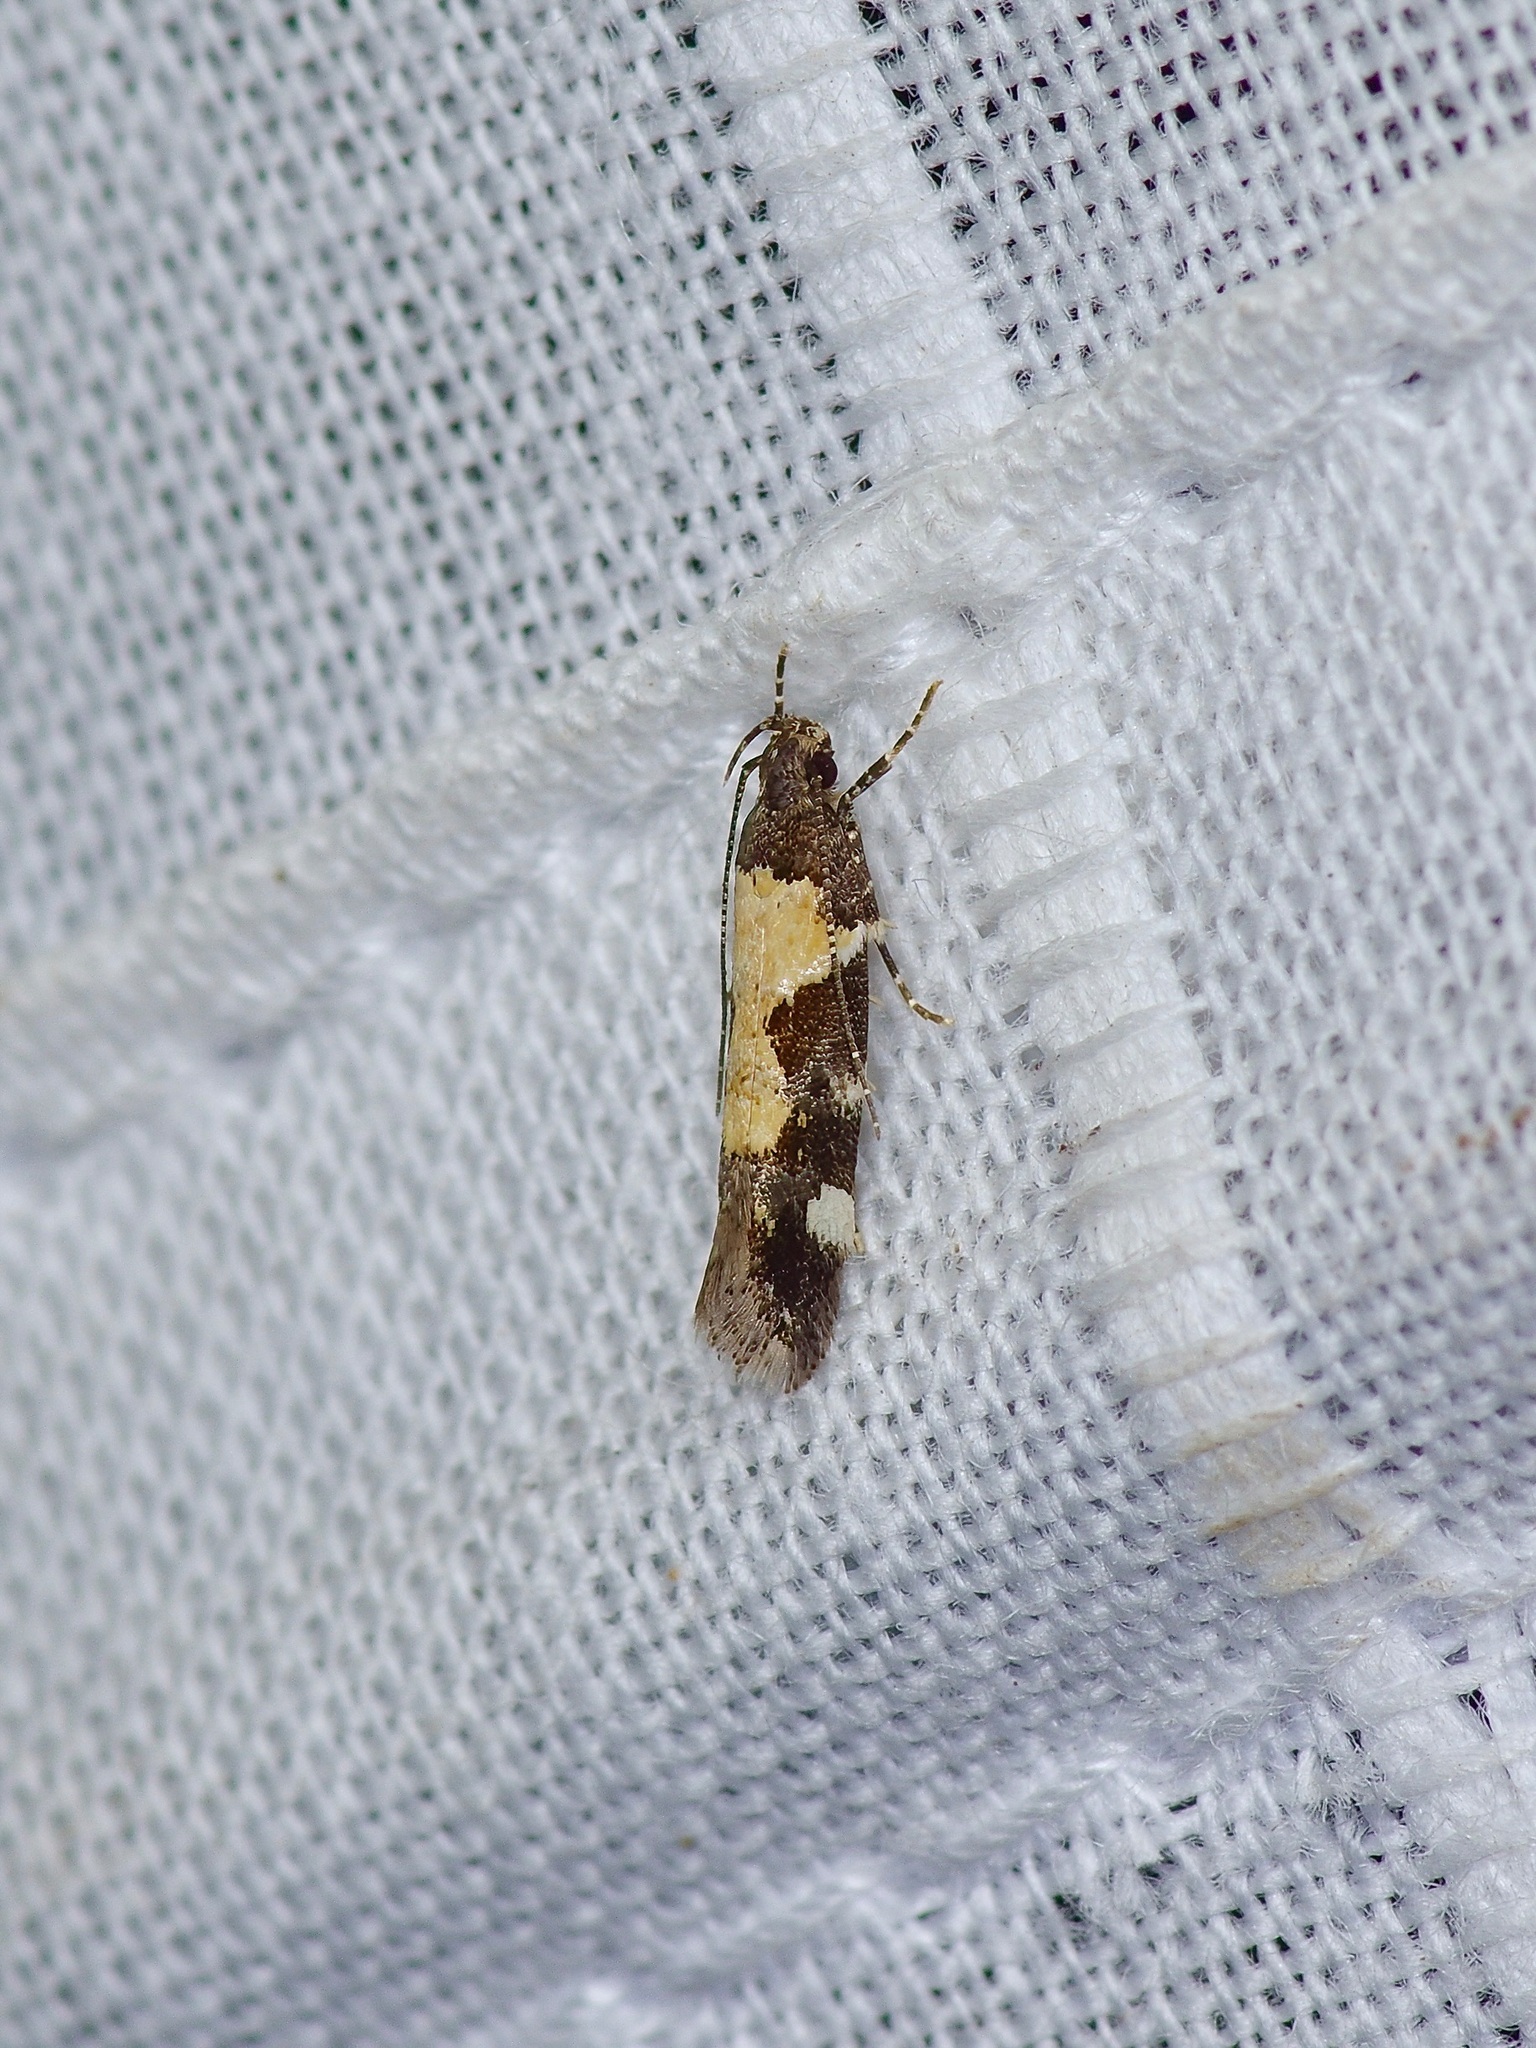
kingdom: Animalia
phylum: Arthropoda
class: Insecta
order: Lepidoptera
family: Gelechiidae
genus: Stegasta
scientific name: Stegasta bosqueella
